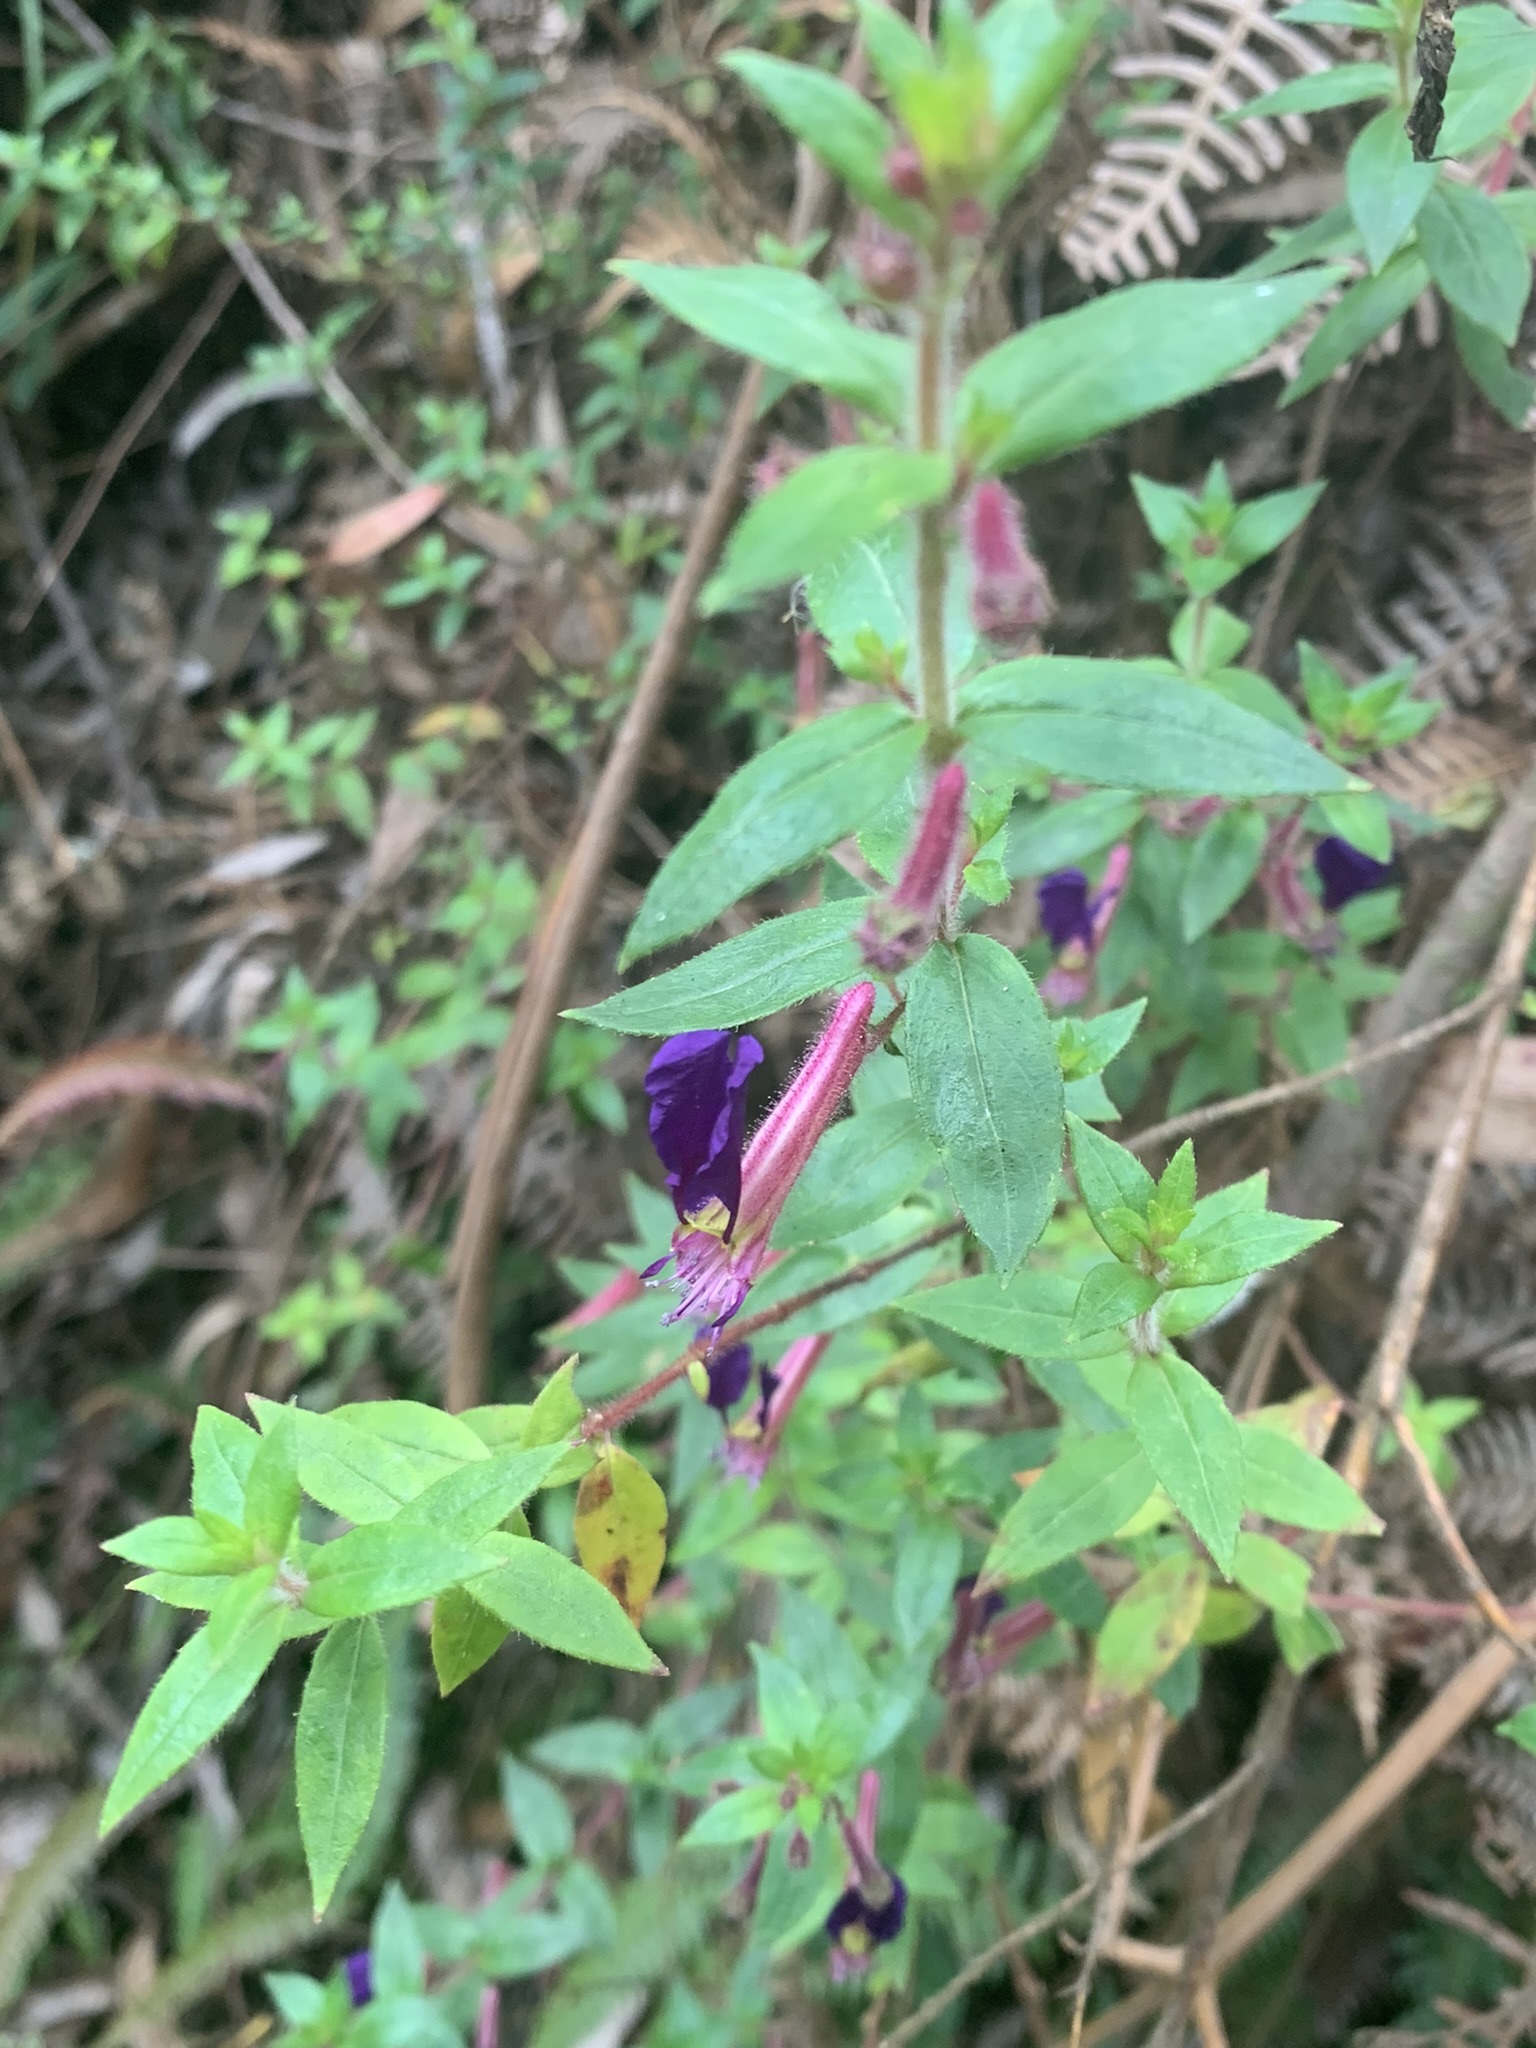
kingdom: Plantae
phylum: Tracheophyta
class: Magnoliopsida
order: Myrtales
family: Lythraceae
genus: Cuphea
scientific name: Cuphea dipetala
